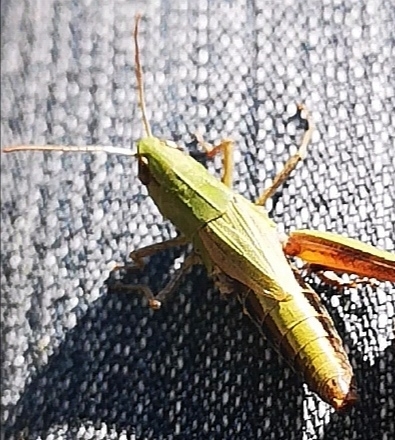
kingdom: Animalia
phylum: Arthropoda
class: Insecta
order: Orthoptera
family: Acrididae
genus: Pseudochorthippus
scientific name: Pseudochorthippus parallelus
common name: Meadow grasshopper
